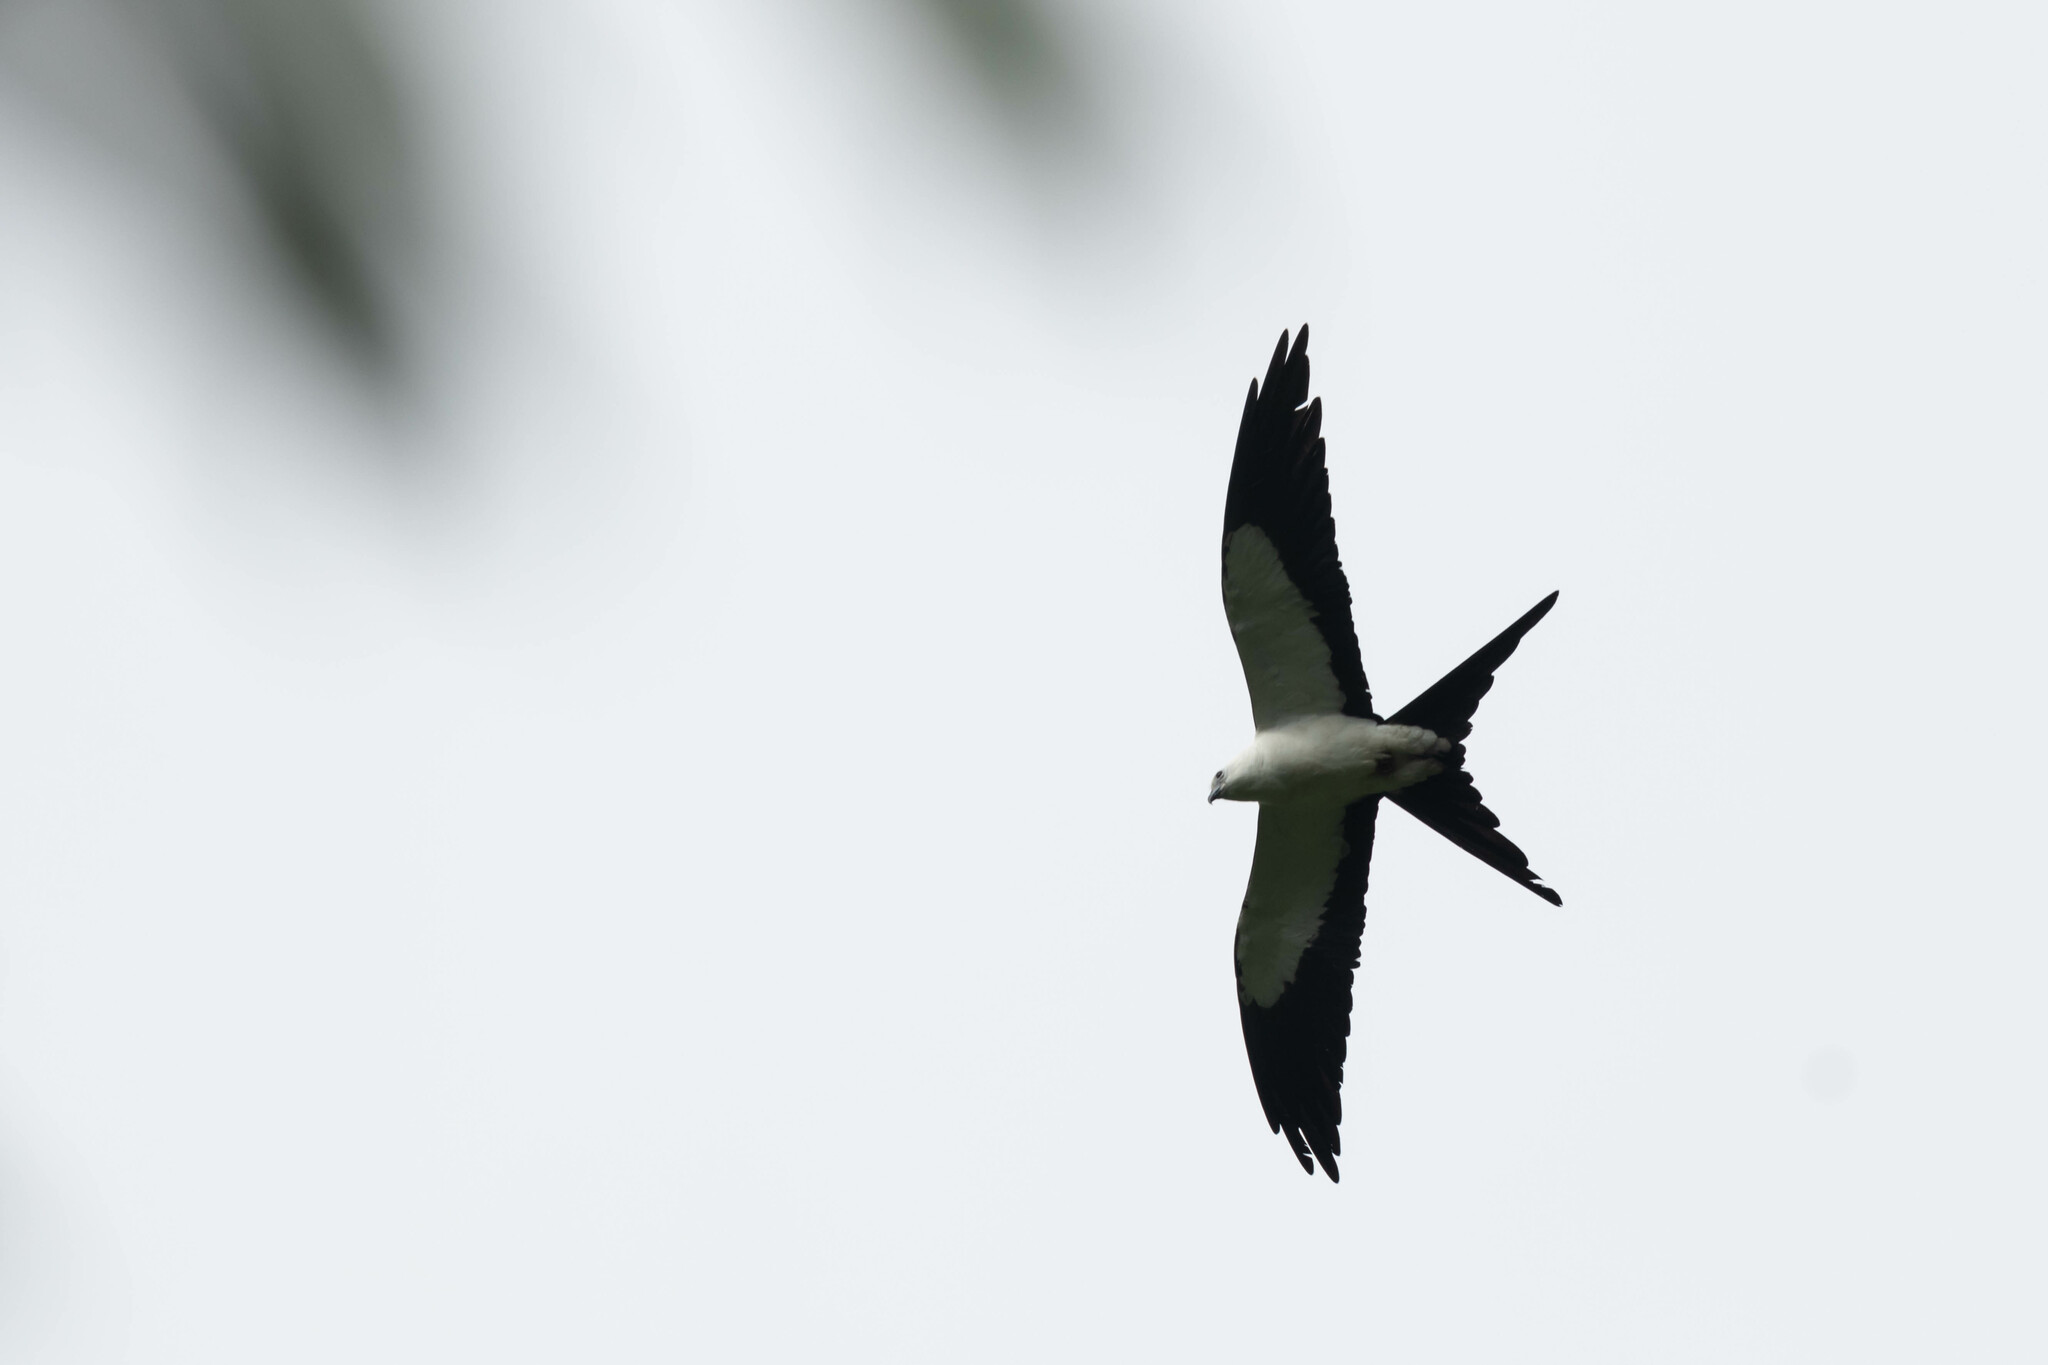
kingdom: Animalia
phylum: Chordata
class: Aves
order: Accipitriformes
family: Accipitridae
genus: Elanoides
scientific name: Elanoides forficatus
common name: Swallow-tailed kite
